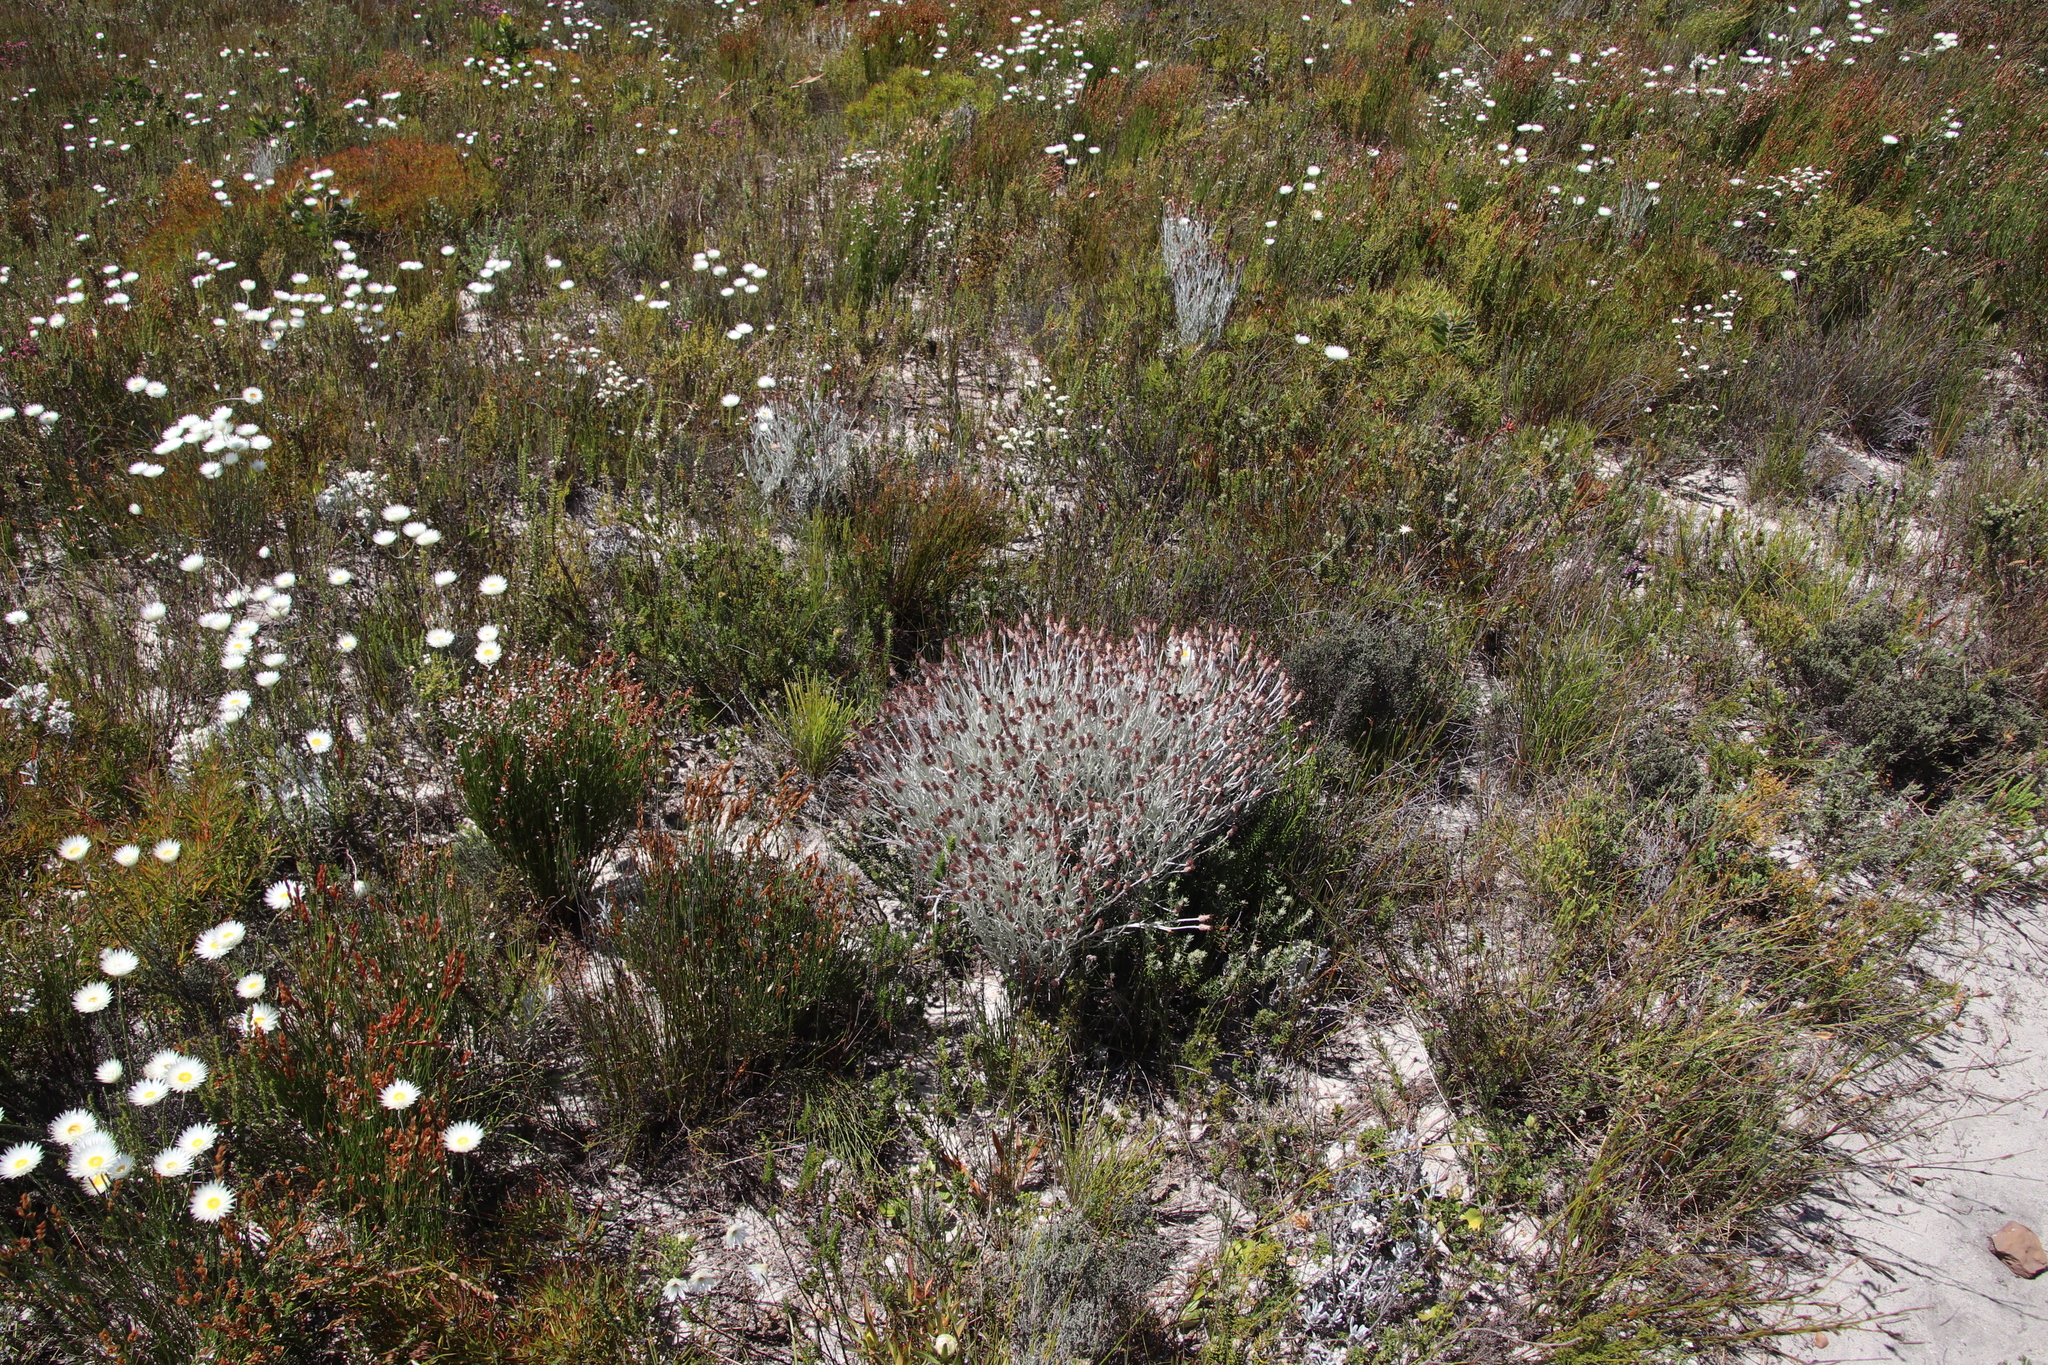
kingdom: Plantae
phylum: Tracheophyta
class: Magnoliopsida
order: Asterales
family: Asteraceae
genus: Syncarpha
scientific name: Syncarpha gnaphaloides
